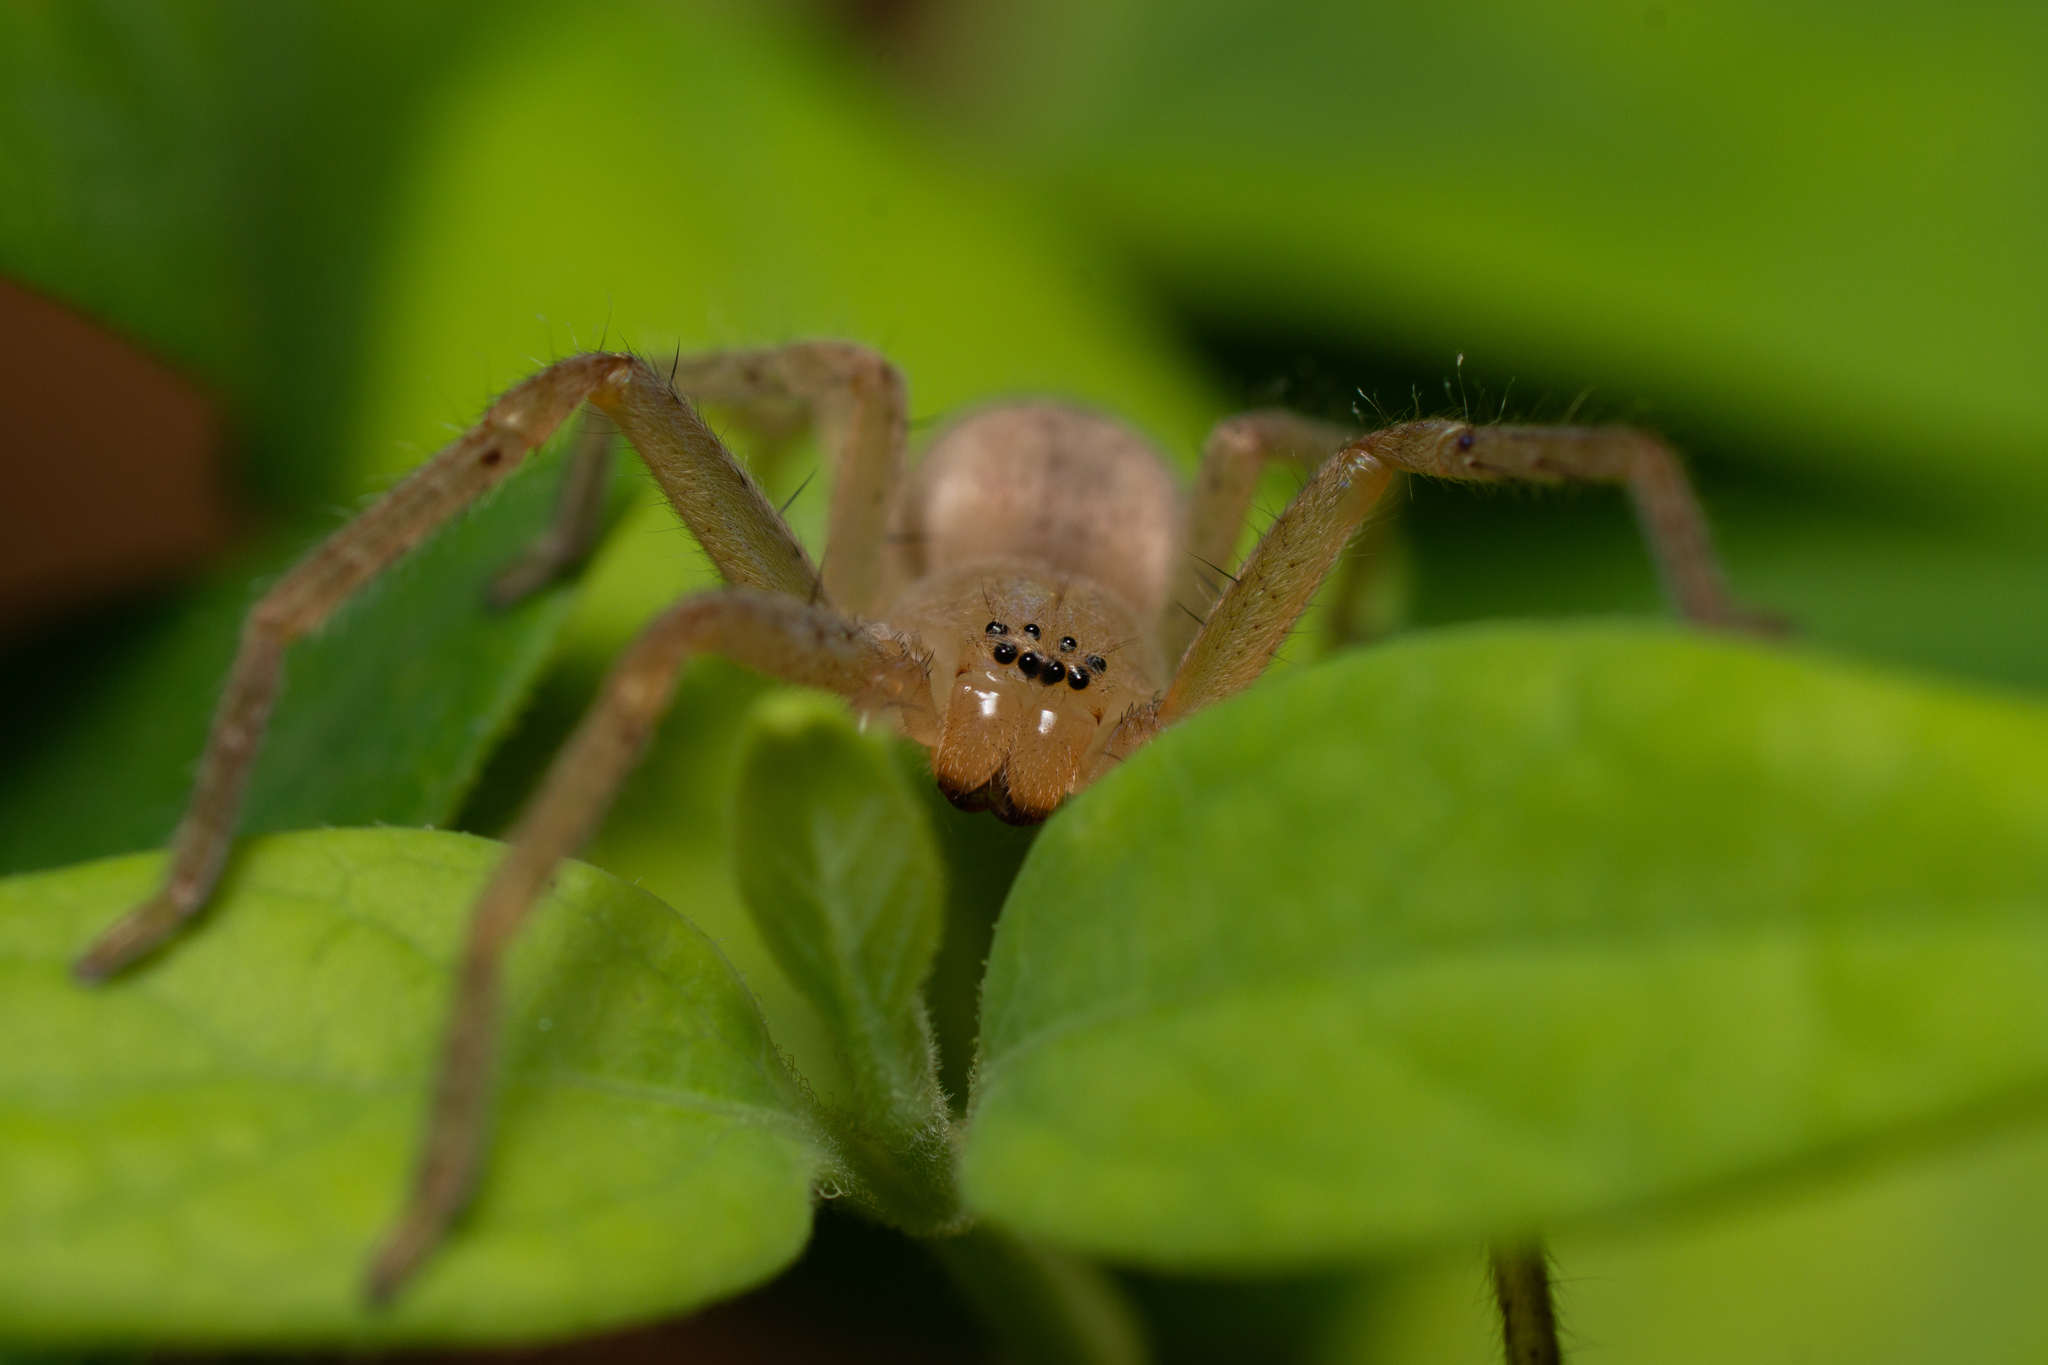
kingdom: Animalia
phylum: Arthropoda
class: Arachnida
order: Araneae
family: Sparassidae
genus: Olios
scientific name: Olios argelasius
